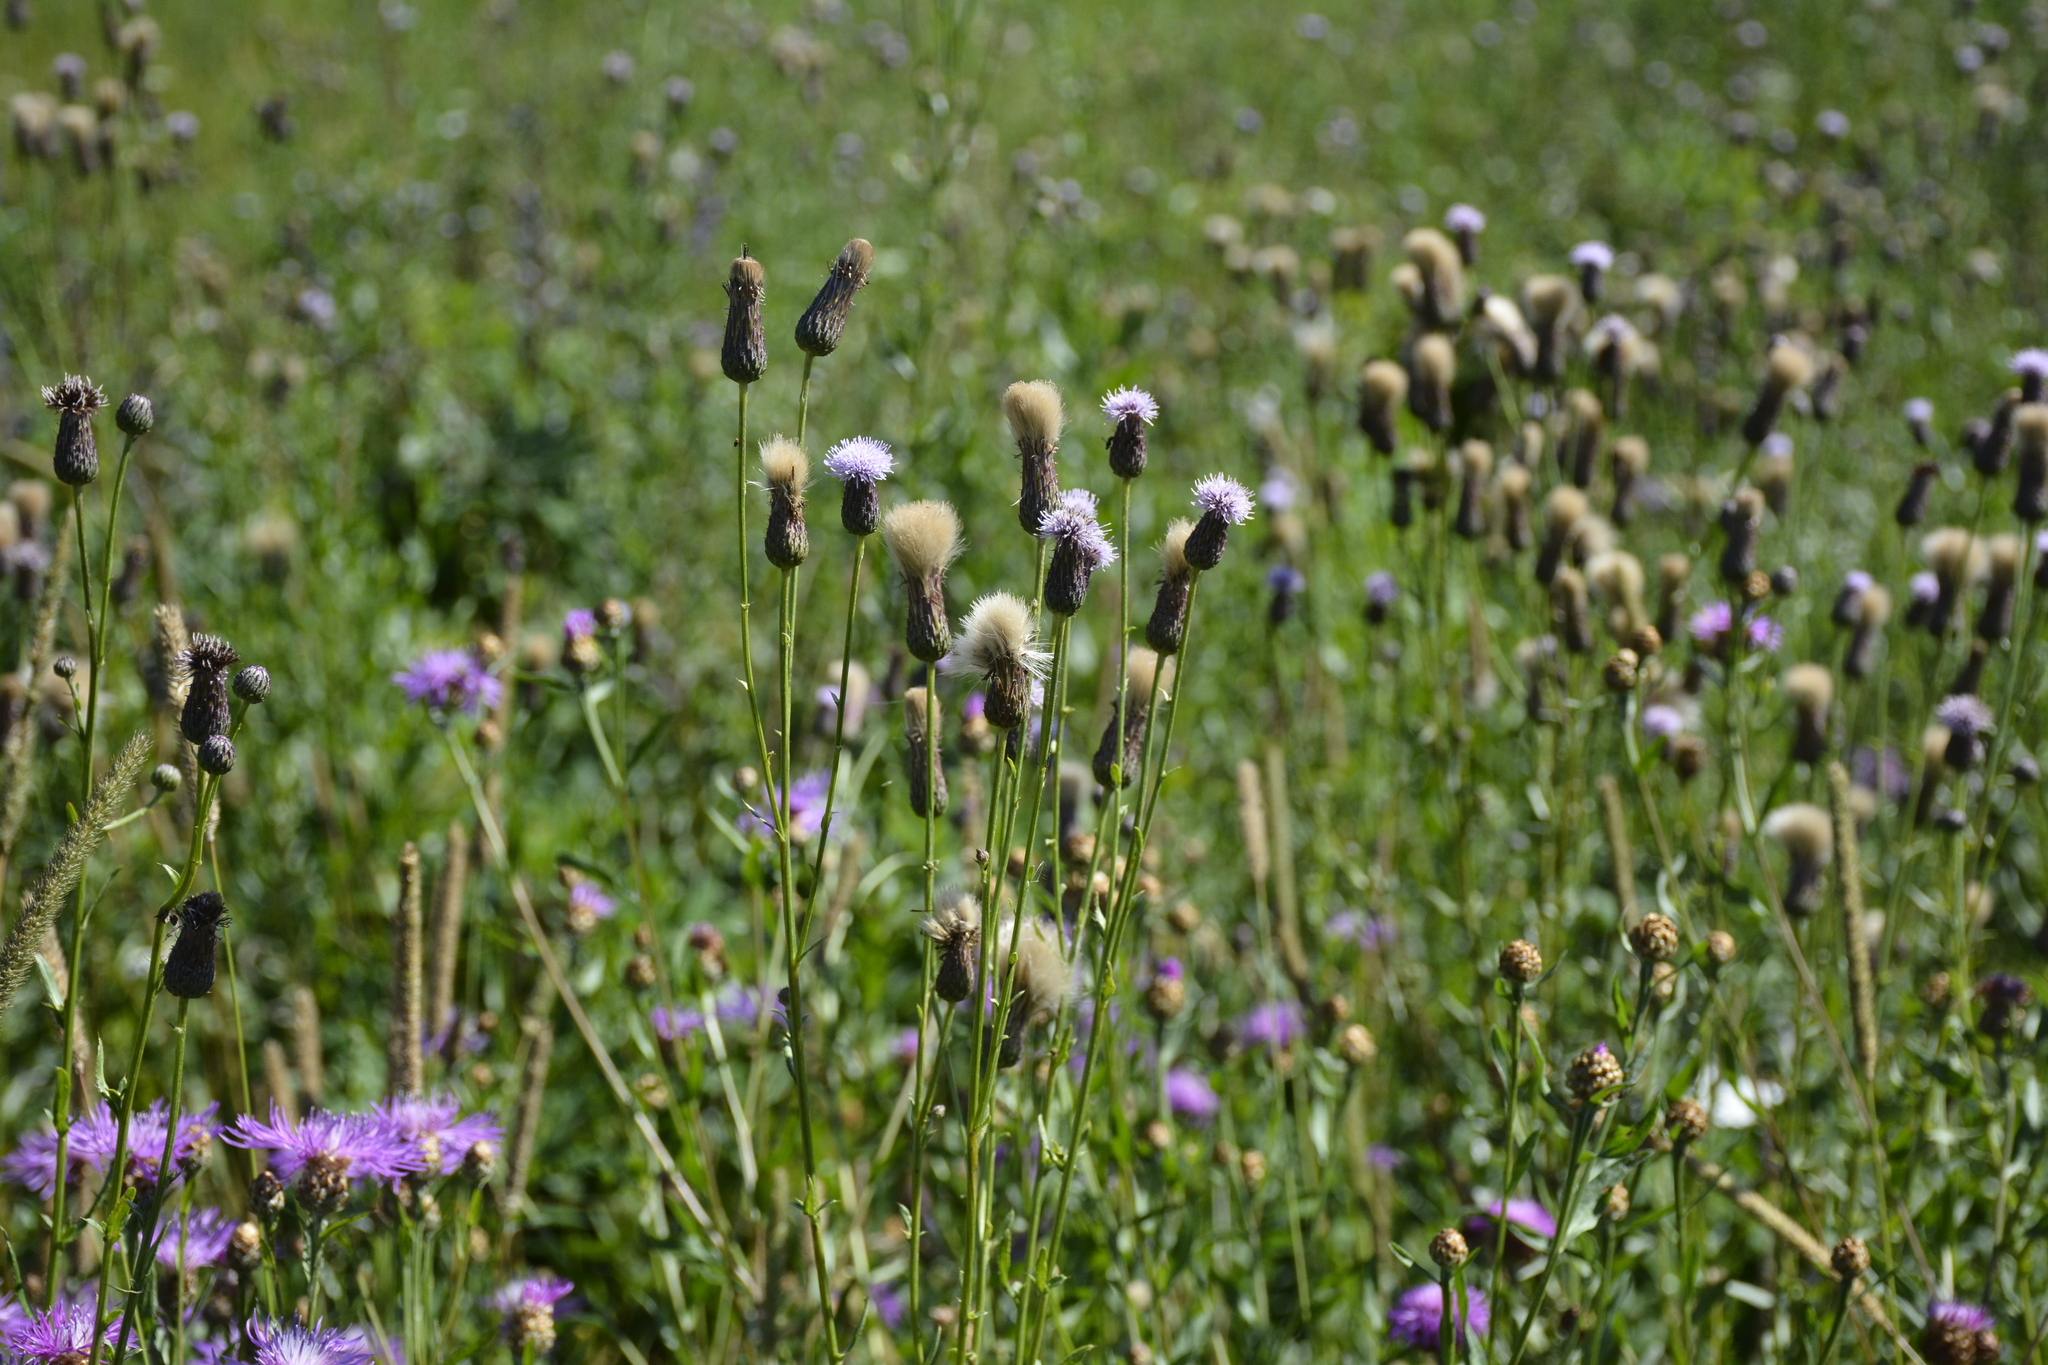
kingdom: Plantae
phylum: Tracheophyta
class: Magnoliopsida
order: Asterales
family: Asteraceae
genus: Cirsium
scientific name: Cirsium arvense
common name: Creeping thistle
